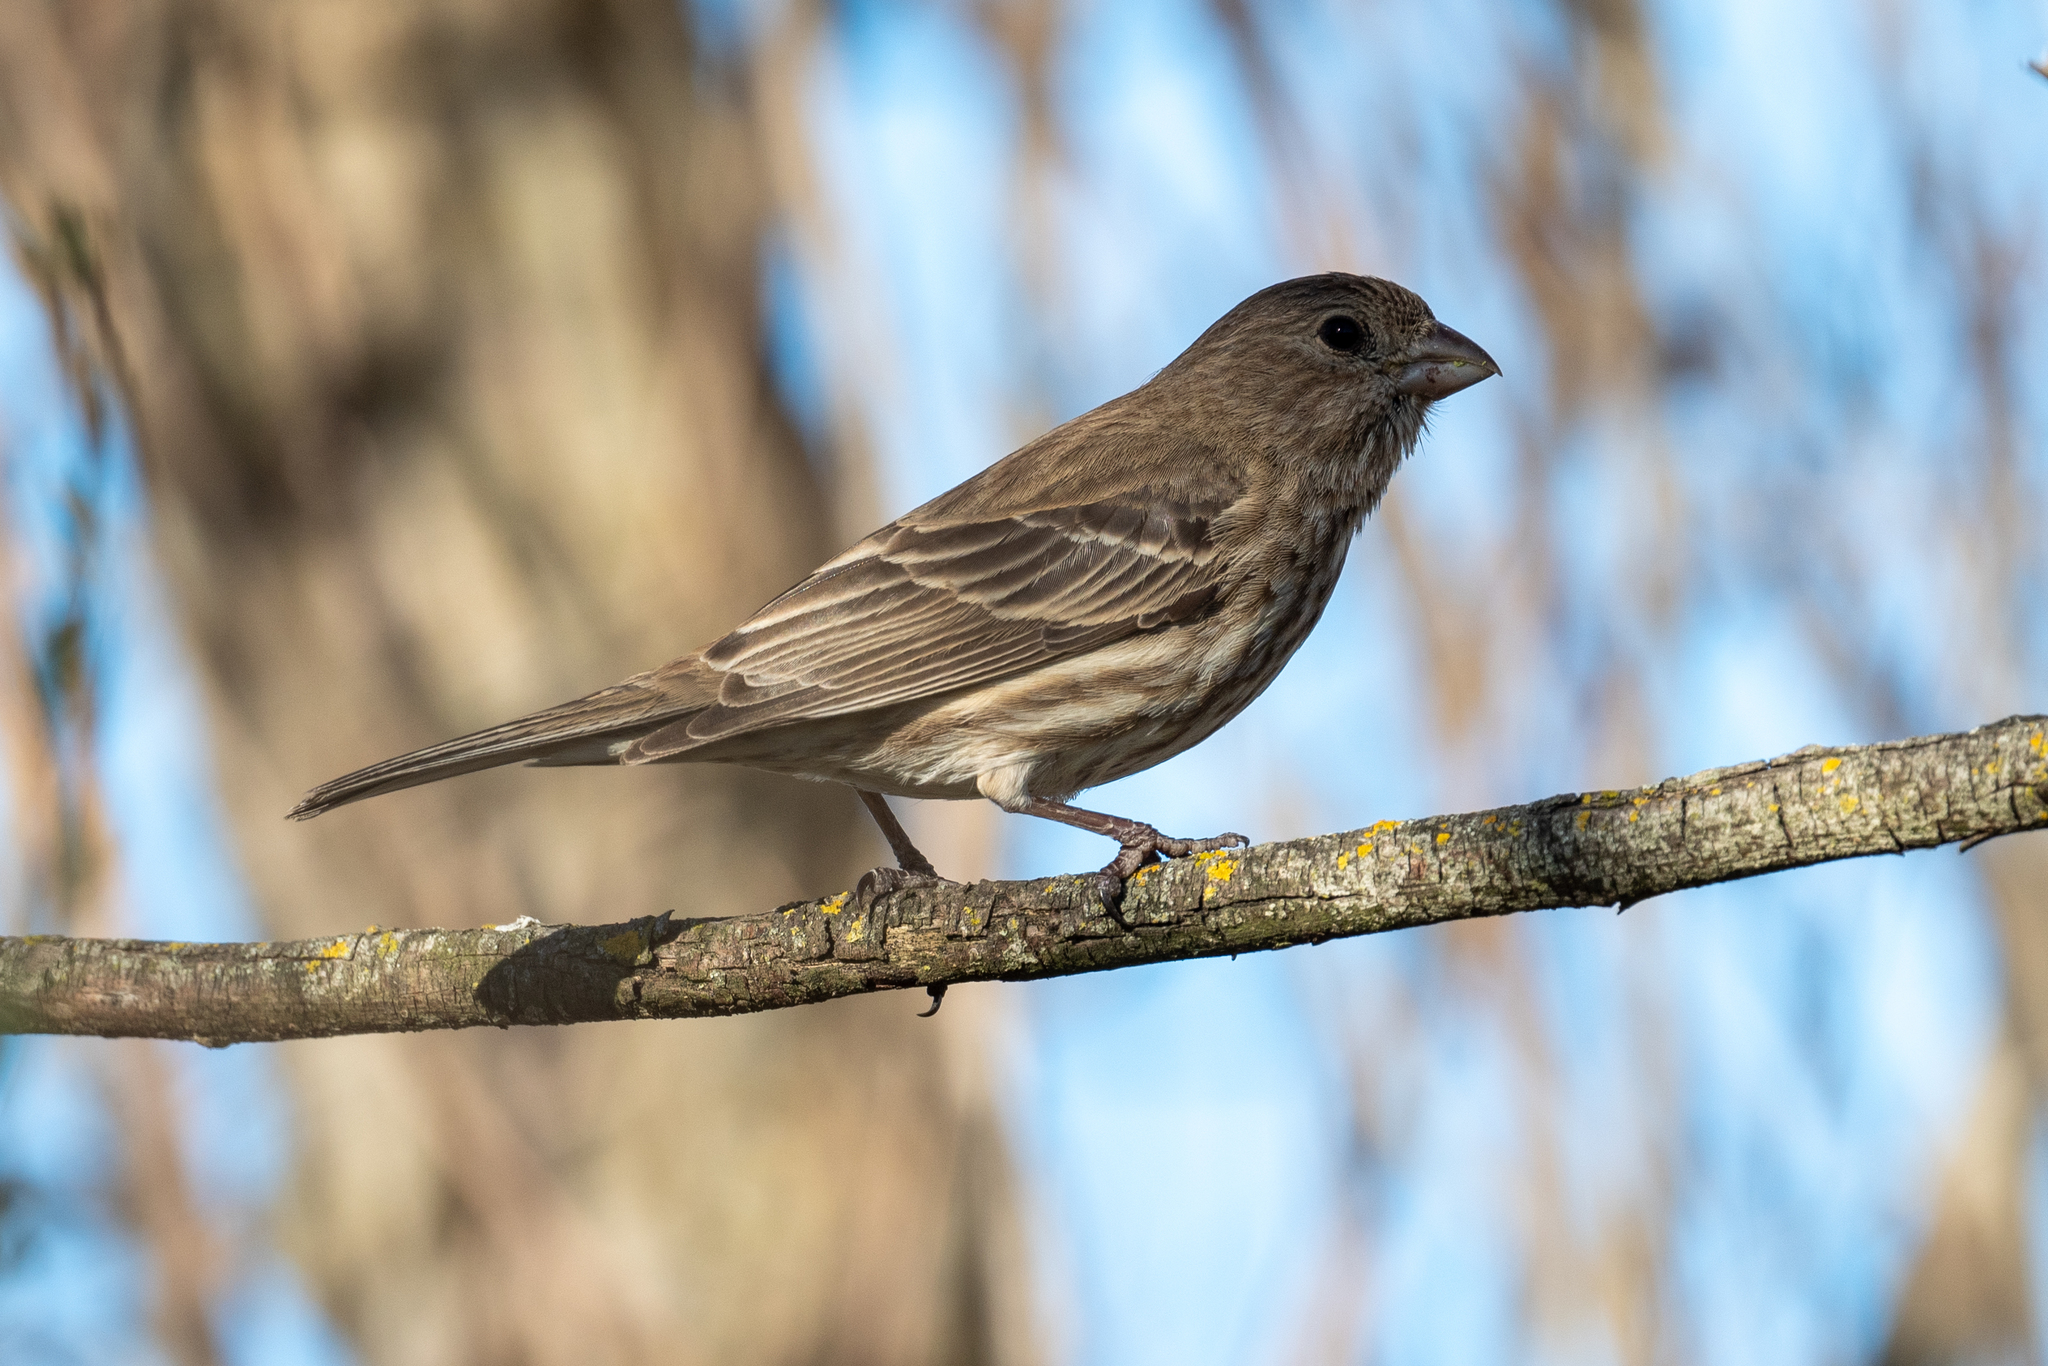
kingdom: Animalia
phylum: Chordata
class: Aves
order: Passeriformes
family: Fringillidae
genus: Haemorhous
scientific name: Haemorhous mexicanus
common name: House finch
